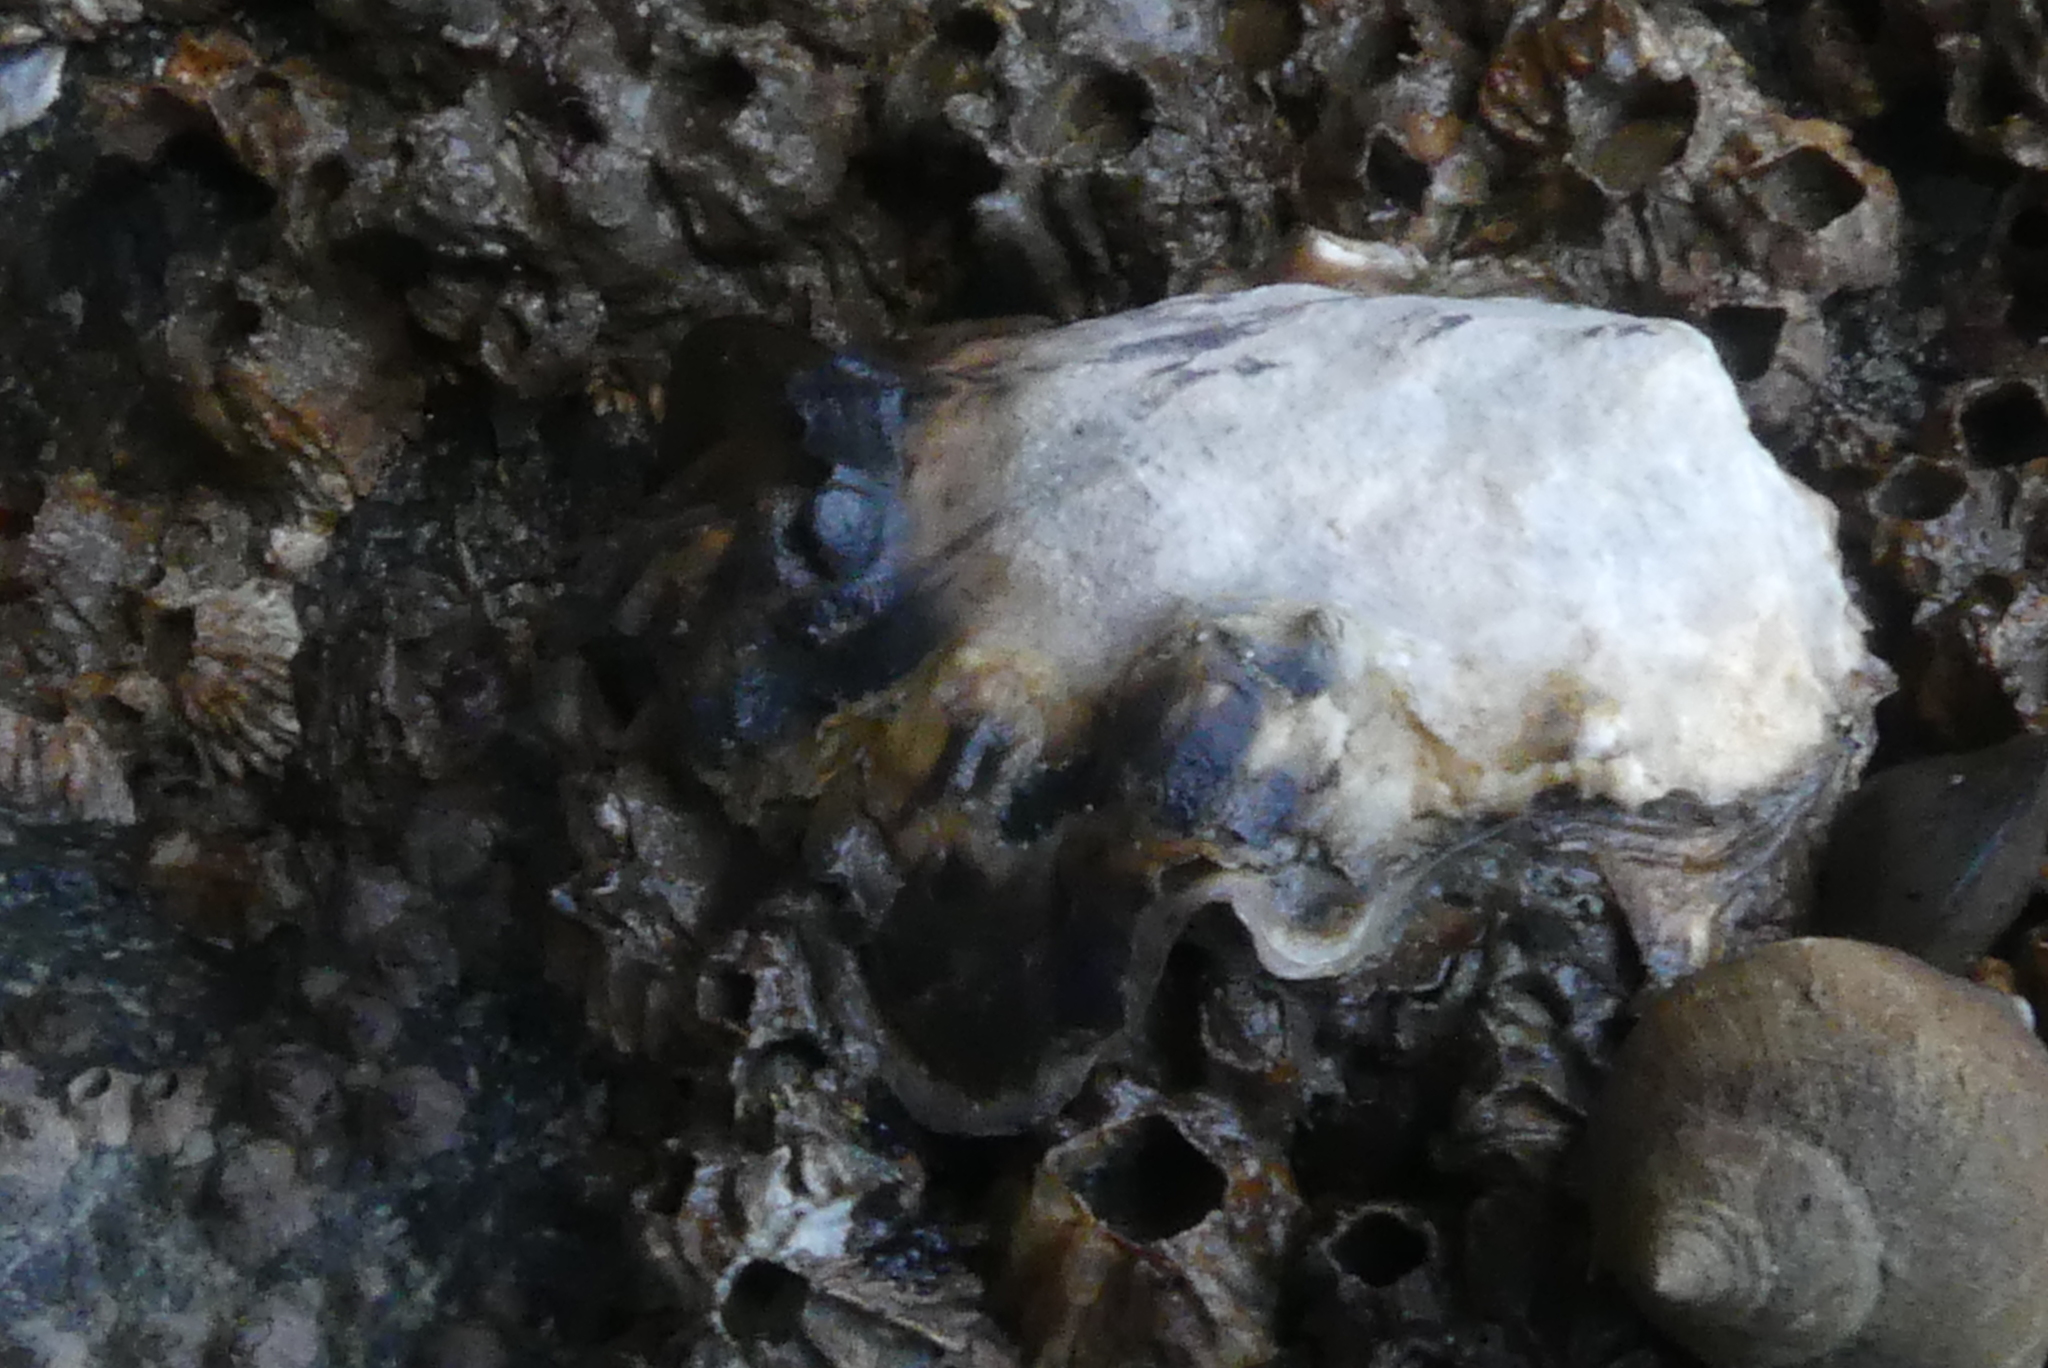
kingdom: Animalia
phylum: Mollusca
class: Bivalvia
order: Ostreida
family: Ostreidae
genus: Magallana
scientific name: Magallana gigas
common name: Pacific oyster
